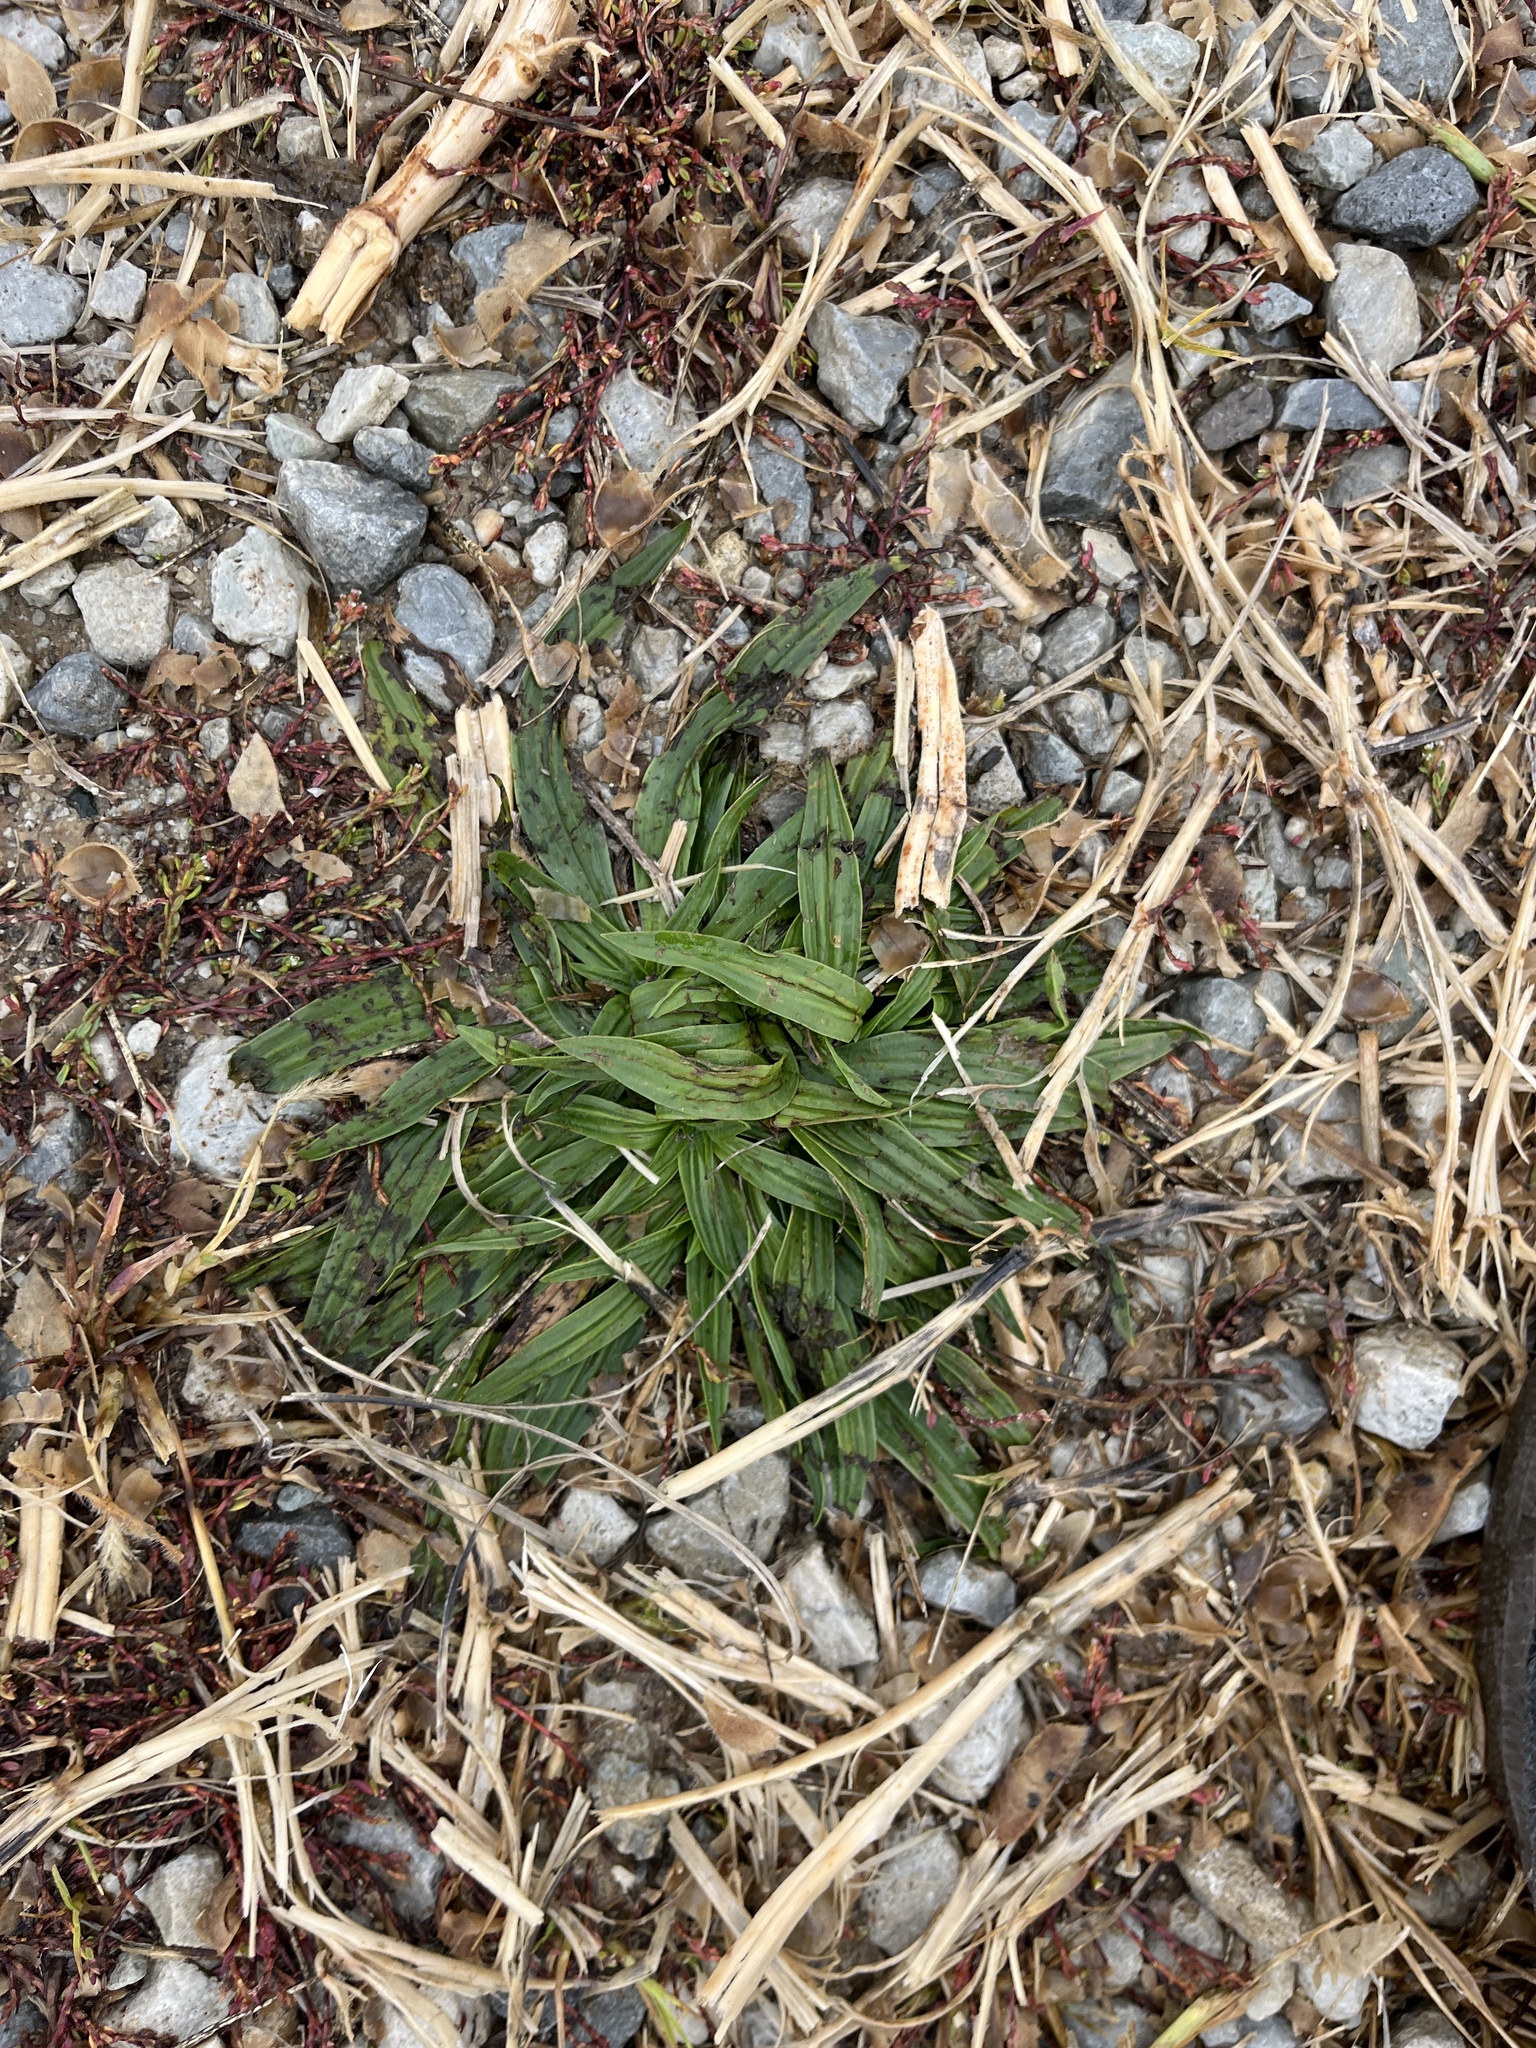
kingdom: Plantae
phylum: Tracheophyta
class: Magnoliopsida
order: Lamiales
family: Plantaginaceae
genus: Plantago
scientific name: Plantago lanceolata
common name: Ribwort plantain
